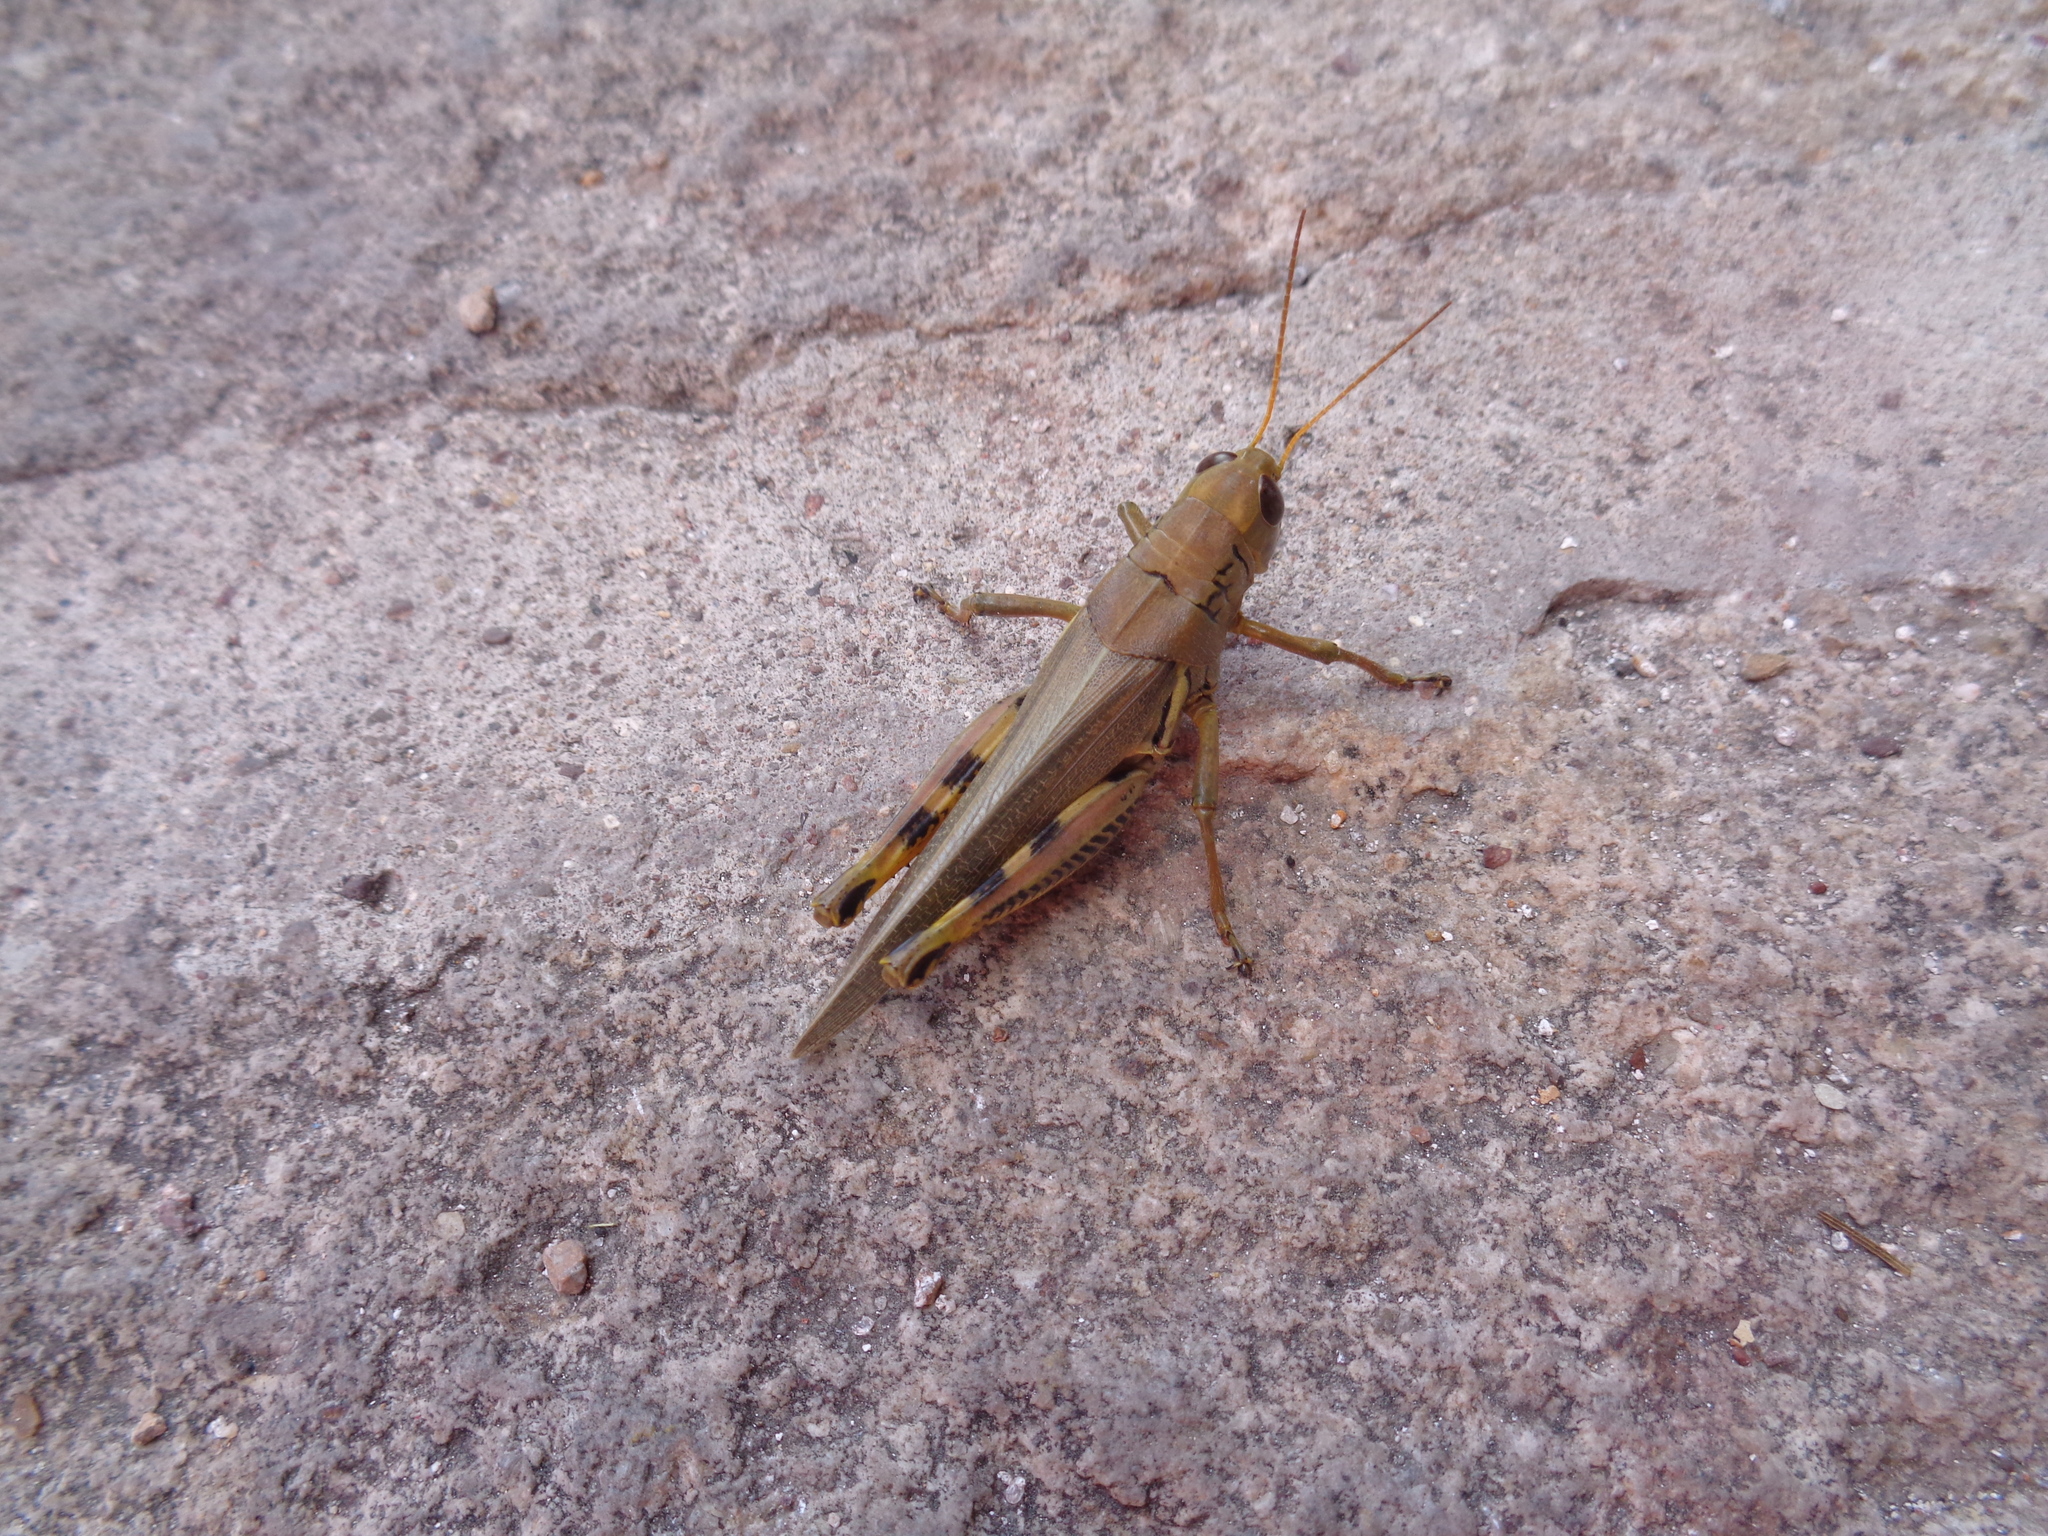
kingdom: Animalia
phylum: Arthropoda
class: Insecta
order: Orthoptera
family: Acrididae
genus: Melanoplus
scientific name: Melanoplus differentialis
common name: Differential grasshopper
